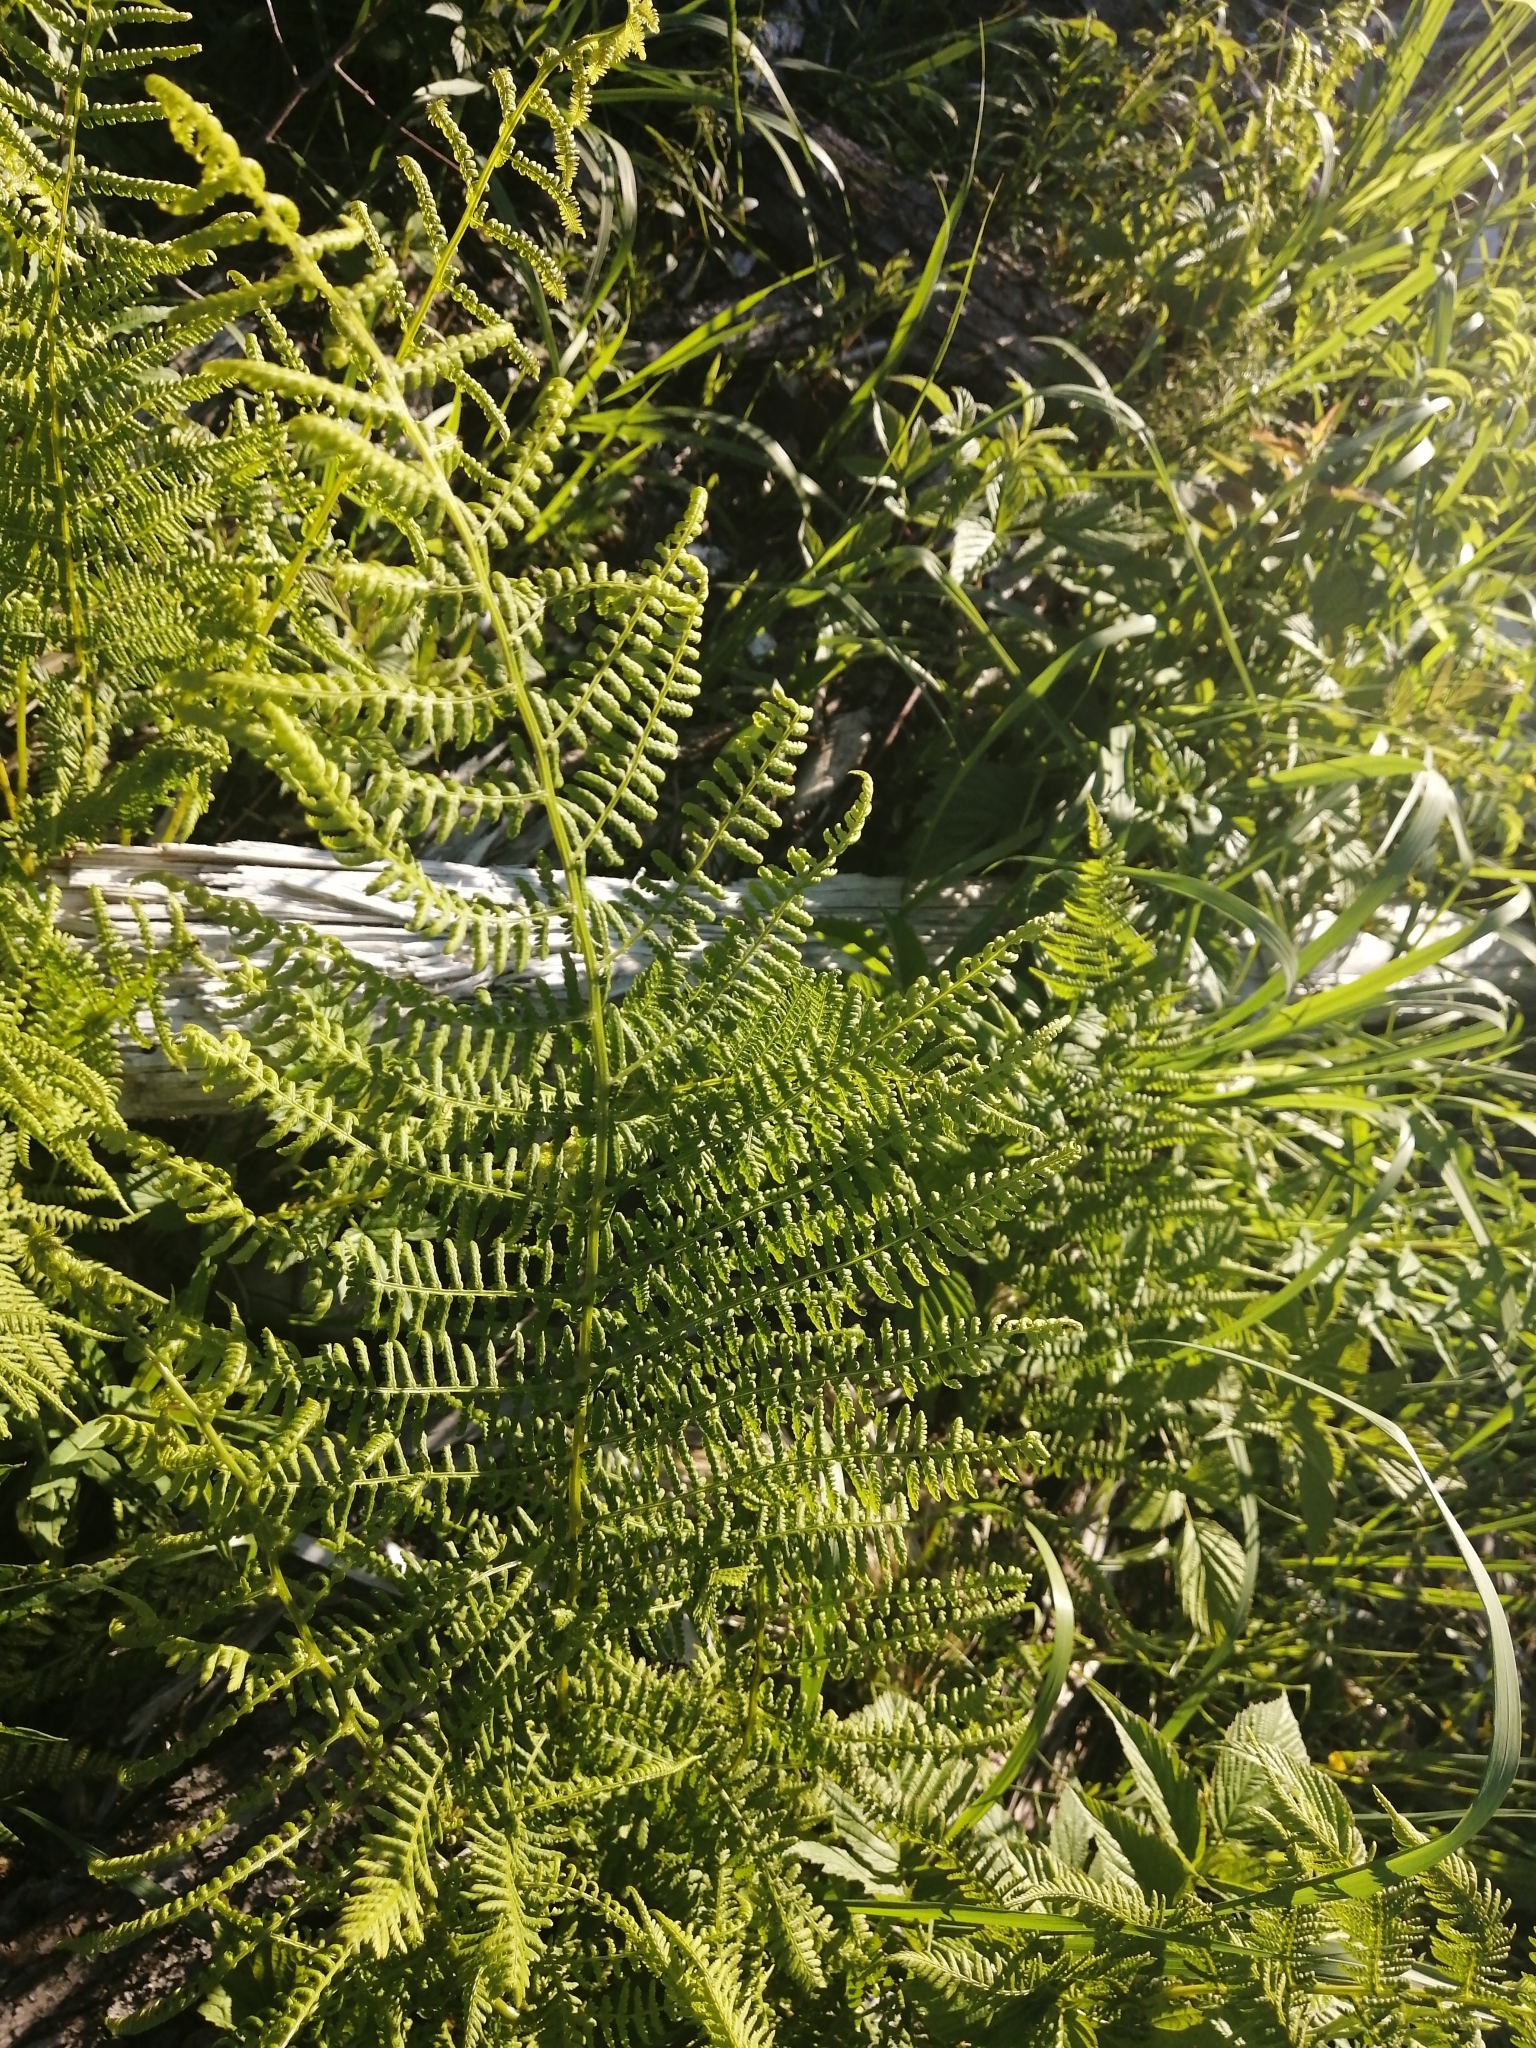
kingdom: Plantae
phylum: Tracheophyta
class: Polypodiopsida
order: Polypodiales
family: Athyriaceae
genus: Athyrium
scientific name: Athyrium filix-femina
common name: Lady fern
